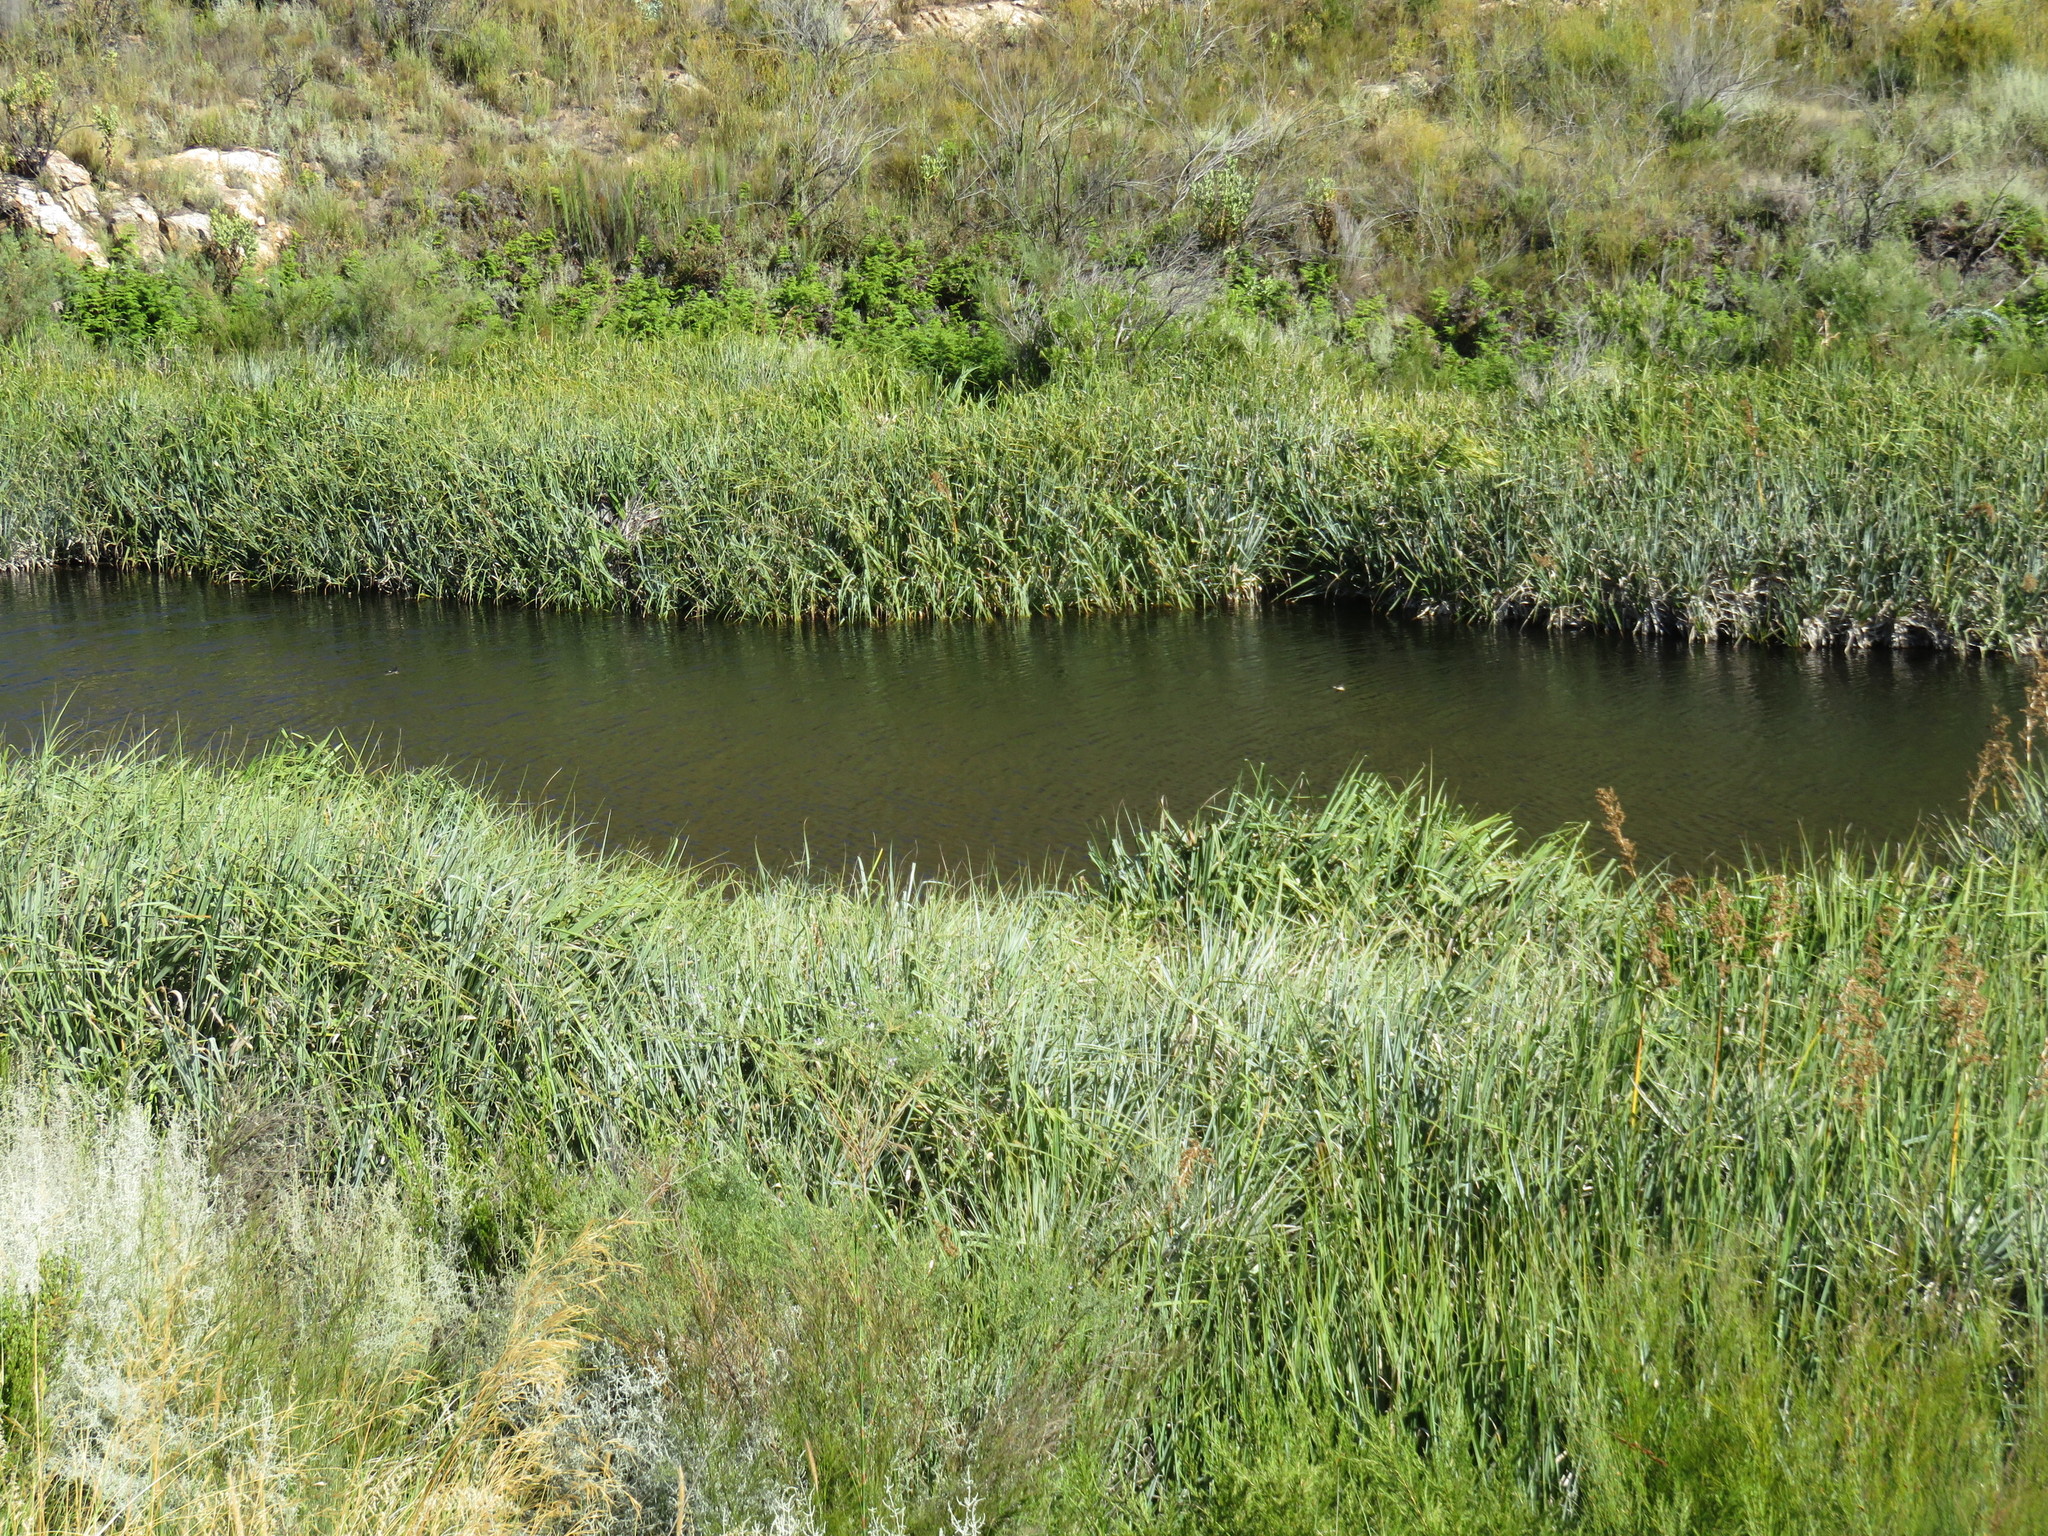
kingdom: Plantae
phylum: Tracheophyta
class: Liliopsida
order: Poales
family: Thurniaceae
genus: Prionium
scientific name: Prionium serratum
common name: Palmiet
